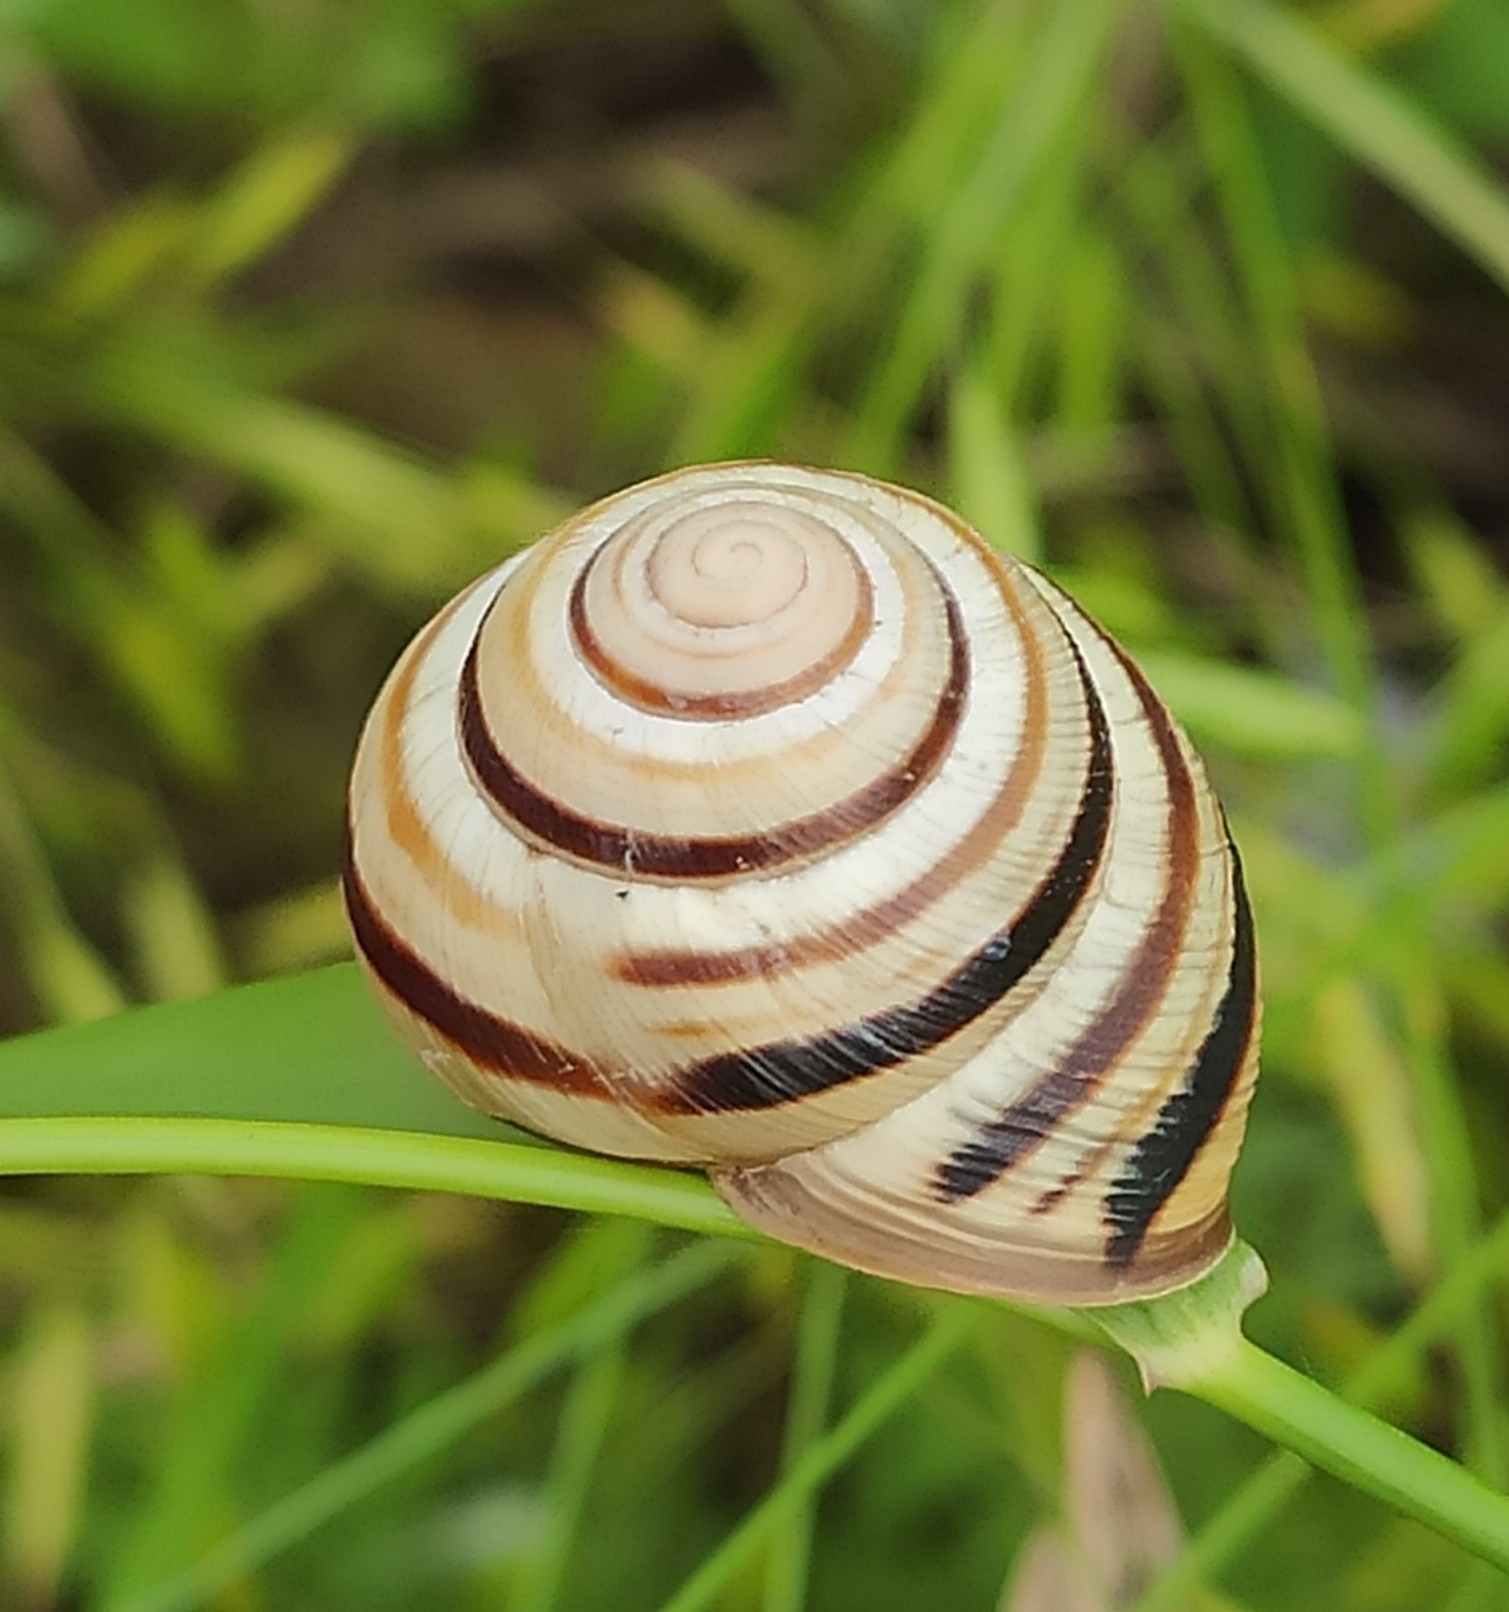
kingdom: Animalia
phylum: Mollusca
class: Gastropoda
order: Stylommatophora
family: Helicidae
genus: Caucasotachea
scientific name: Caucasotachea vindobonensis
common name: European helicid land snail
